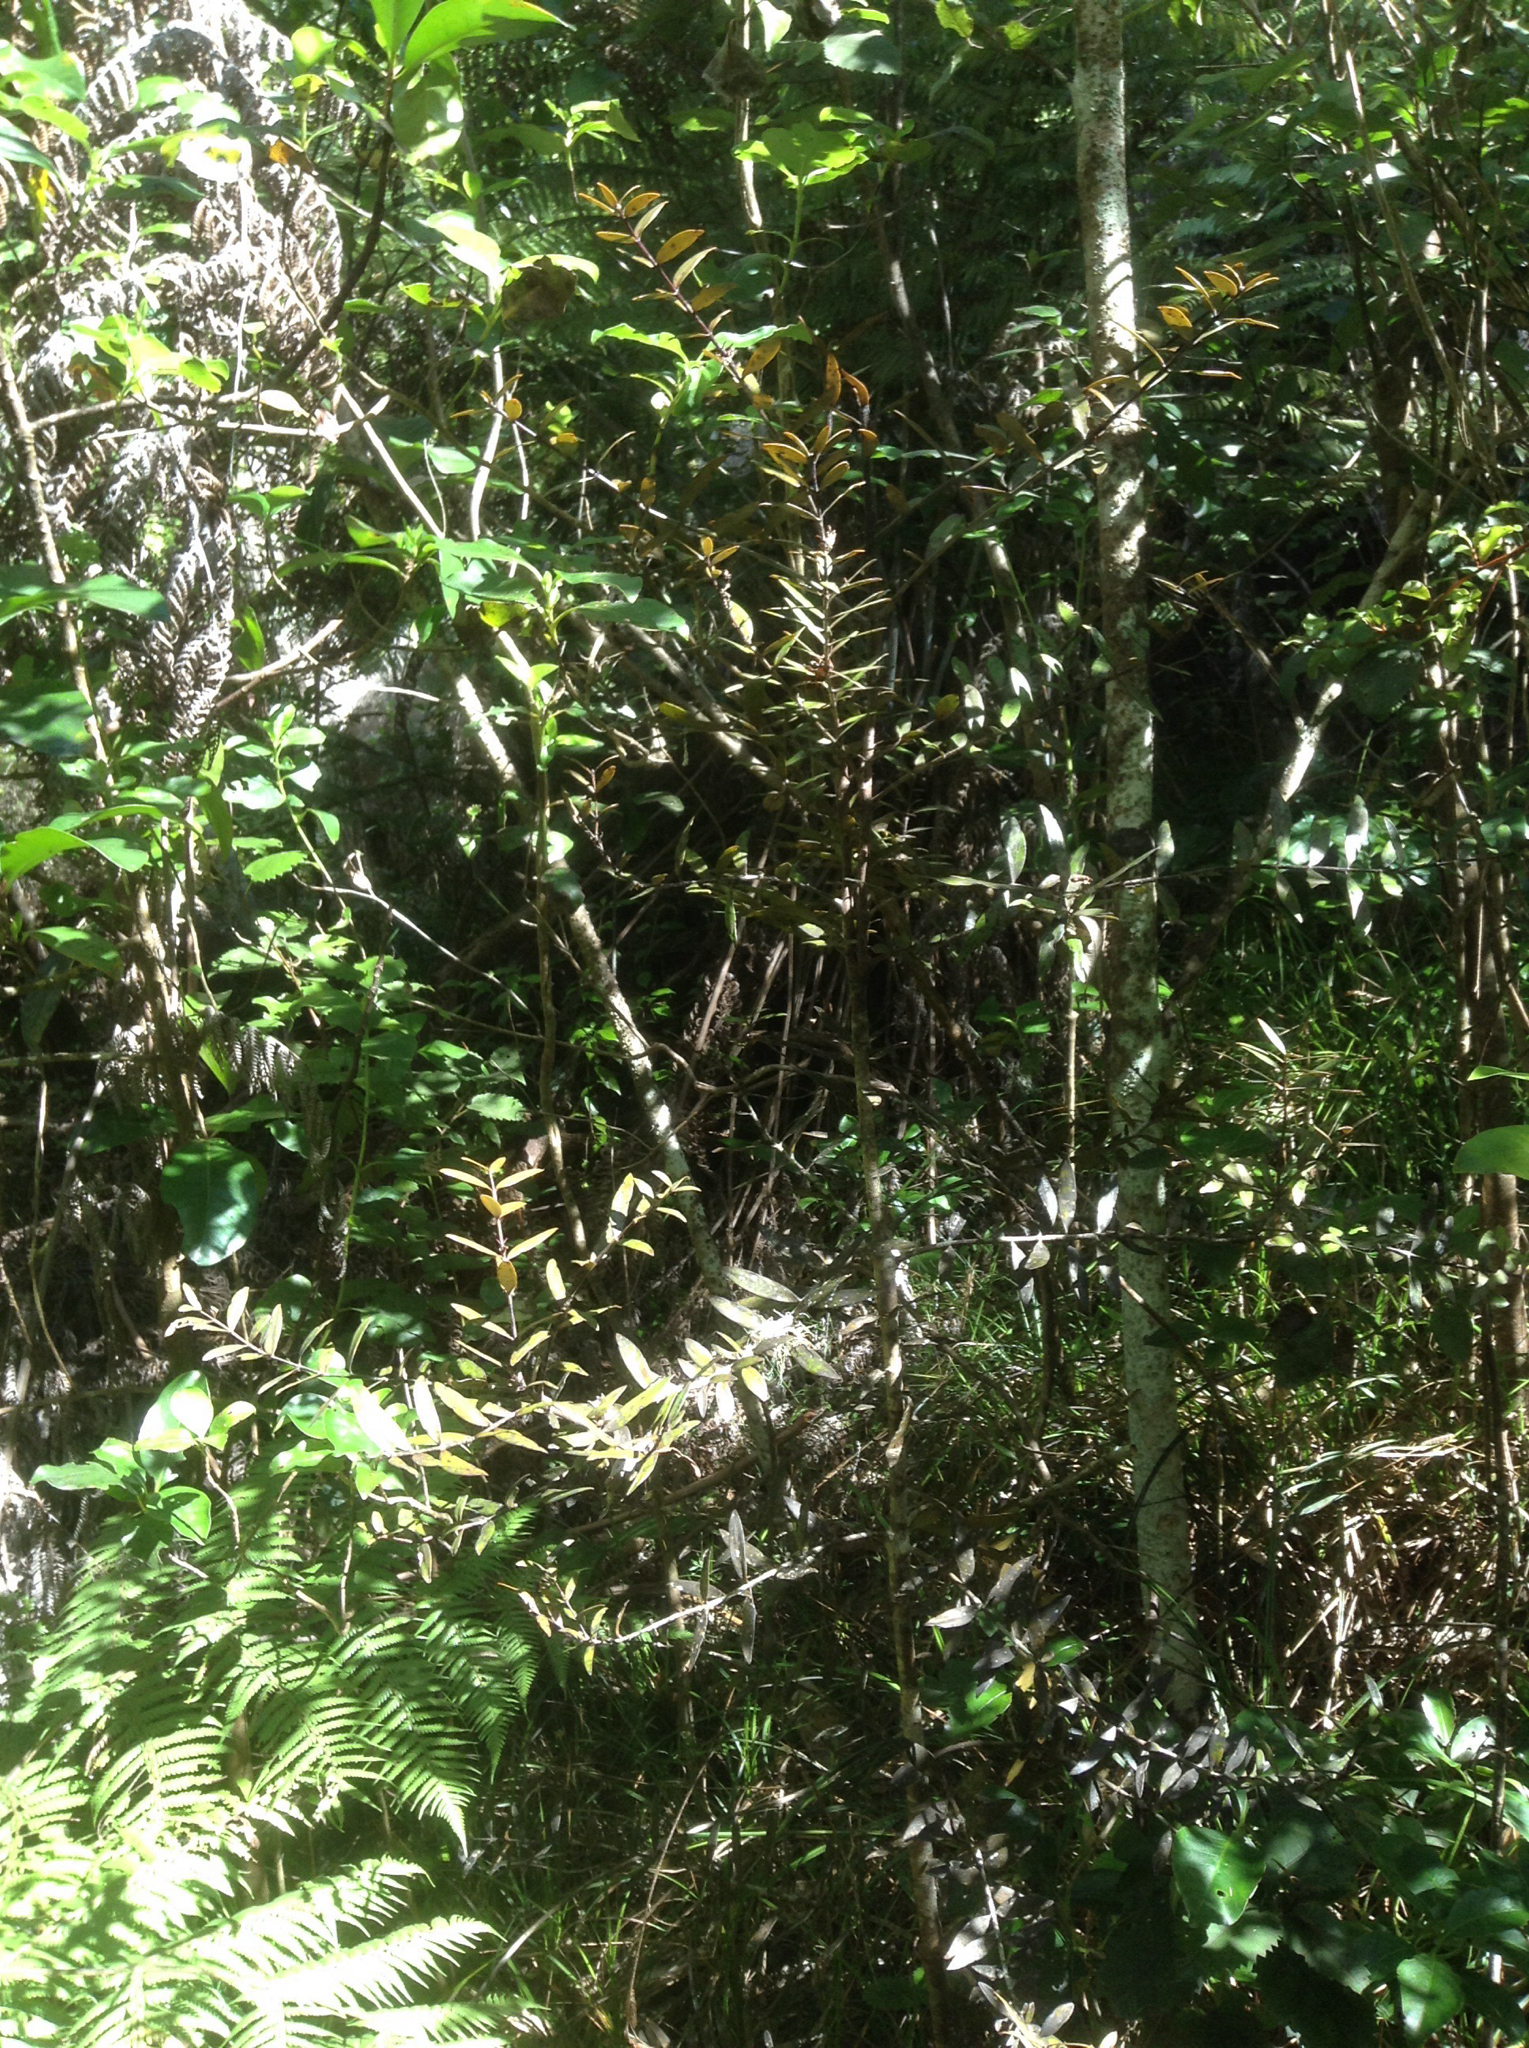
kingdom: Plantae
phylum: Tracheophyta
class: Pinopsida
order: Pinales
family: Araucariaceae
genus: Agathis
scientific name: Agathis australis
